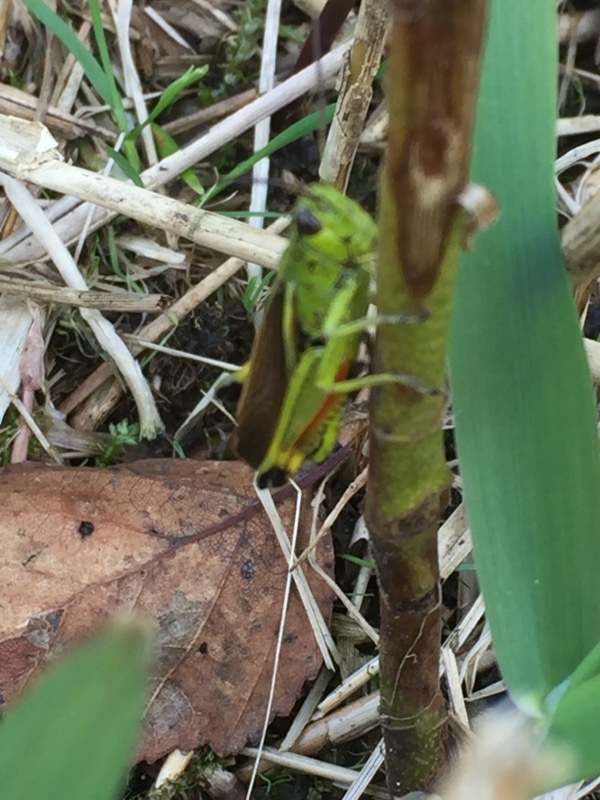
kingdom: Animalia
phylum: Arthropoda
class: Insecta
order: Orthoptera
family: Acrididae
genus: Stethophyma
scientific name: Stethophyma grossum
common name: Large marsh grasshopper
